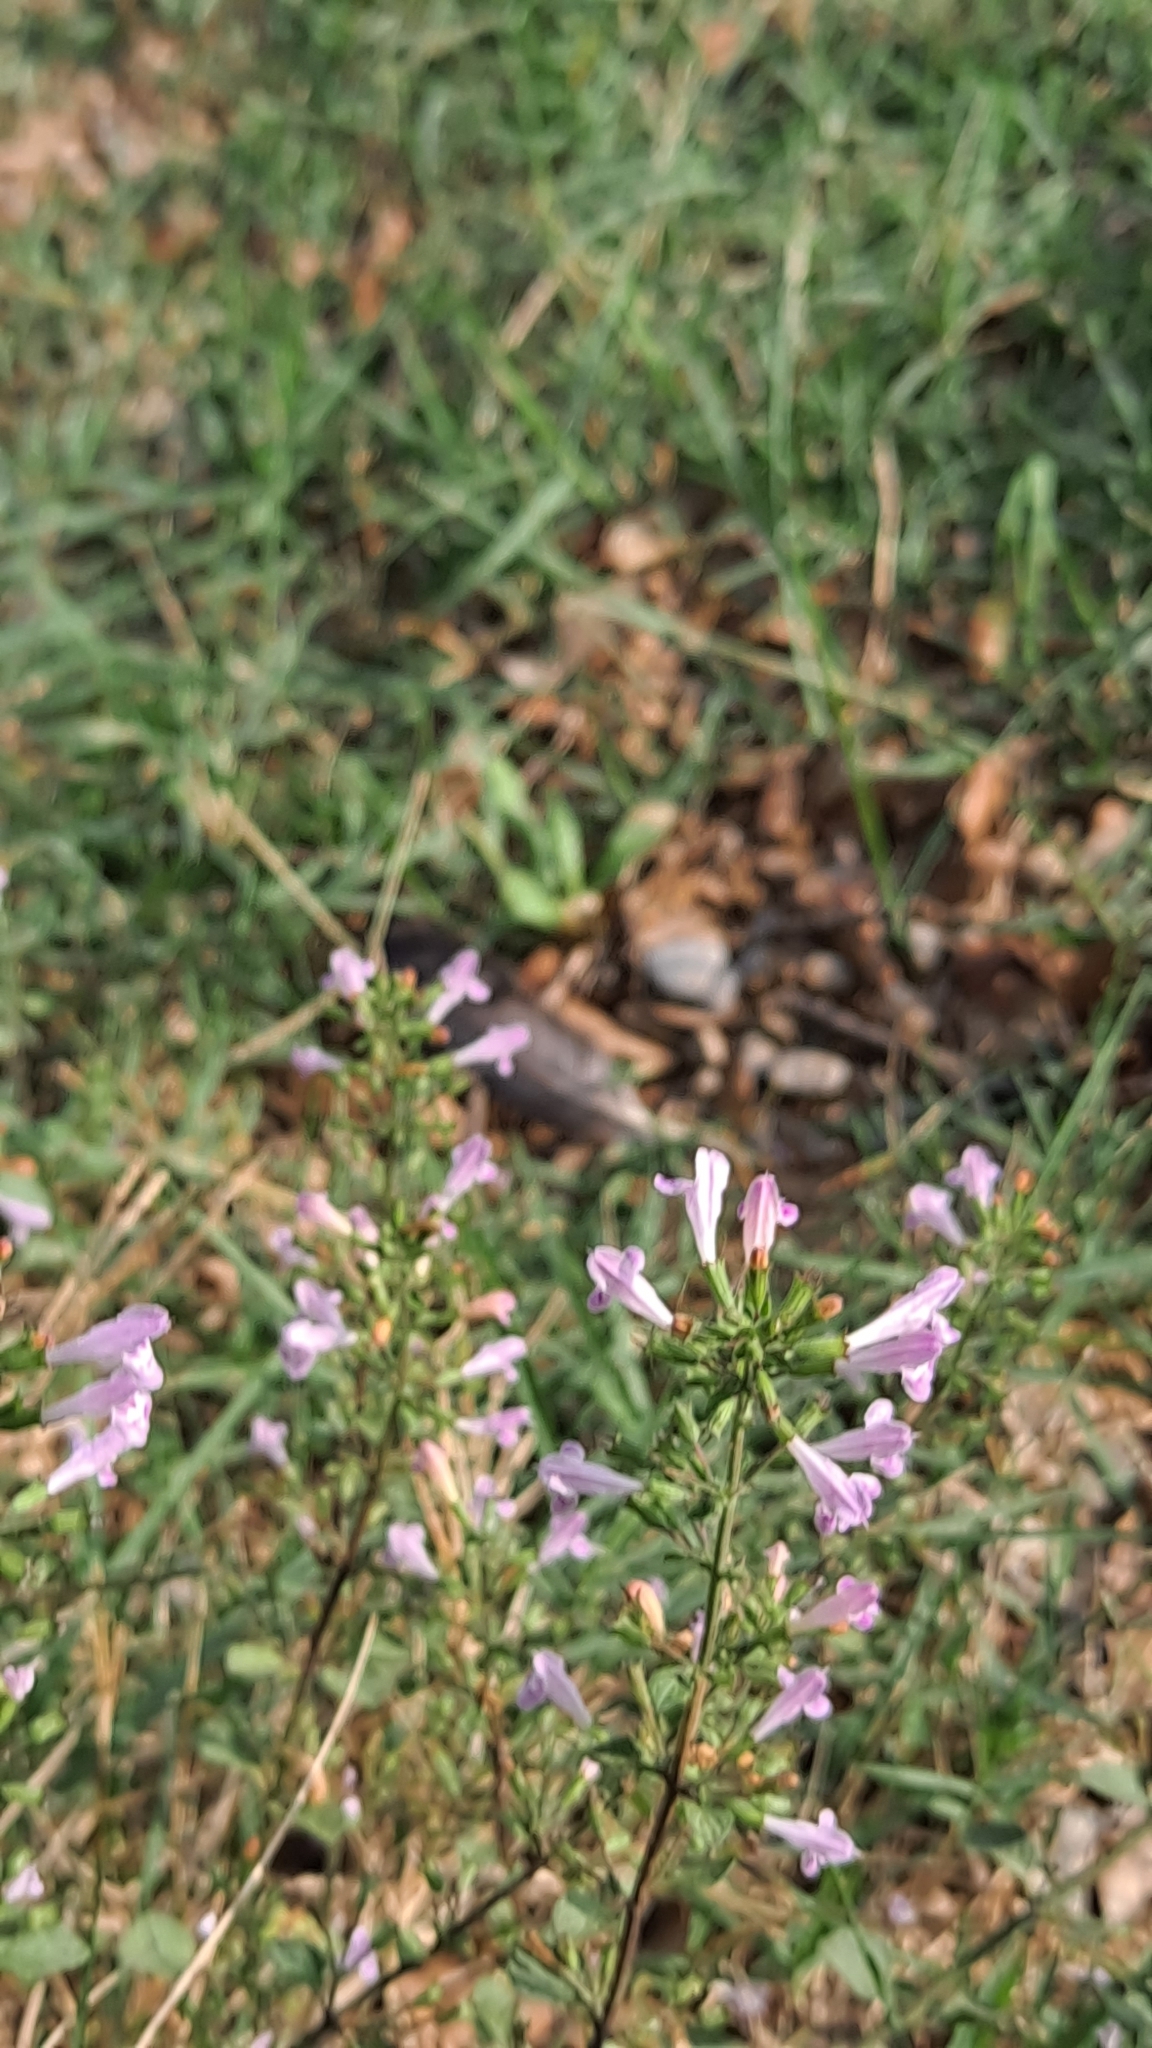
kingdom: Plantae
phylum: Tracheophyta
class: Magnoliopsida
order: Lamiales
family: Lamiaceae
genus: Clinopodium
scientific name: Clinopodium nepeta
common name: Lesser calamint
